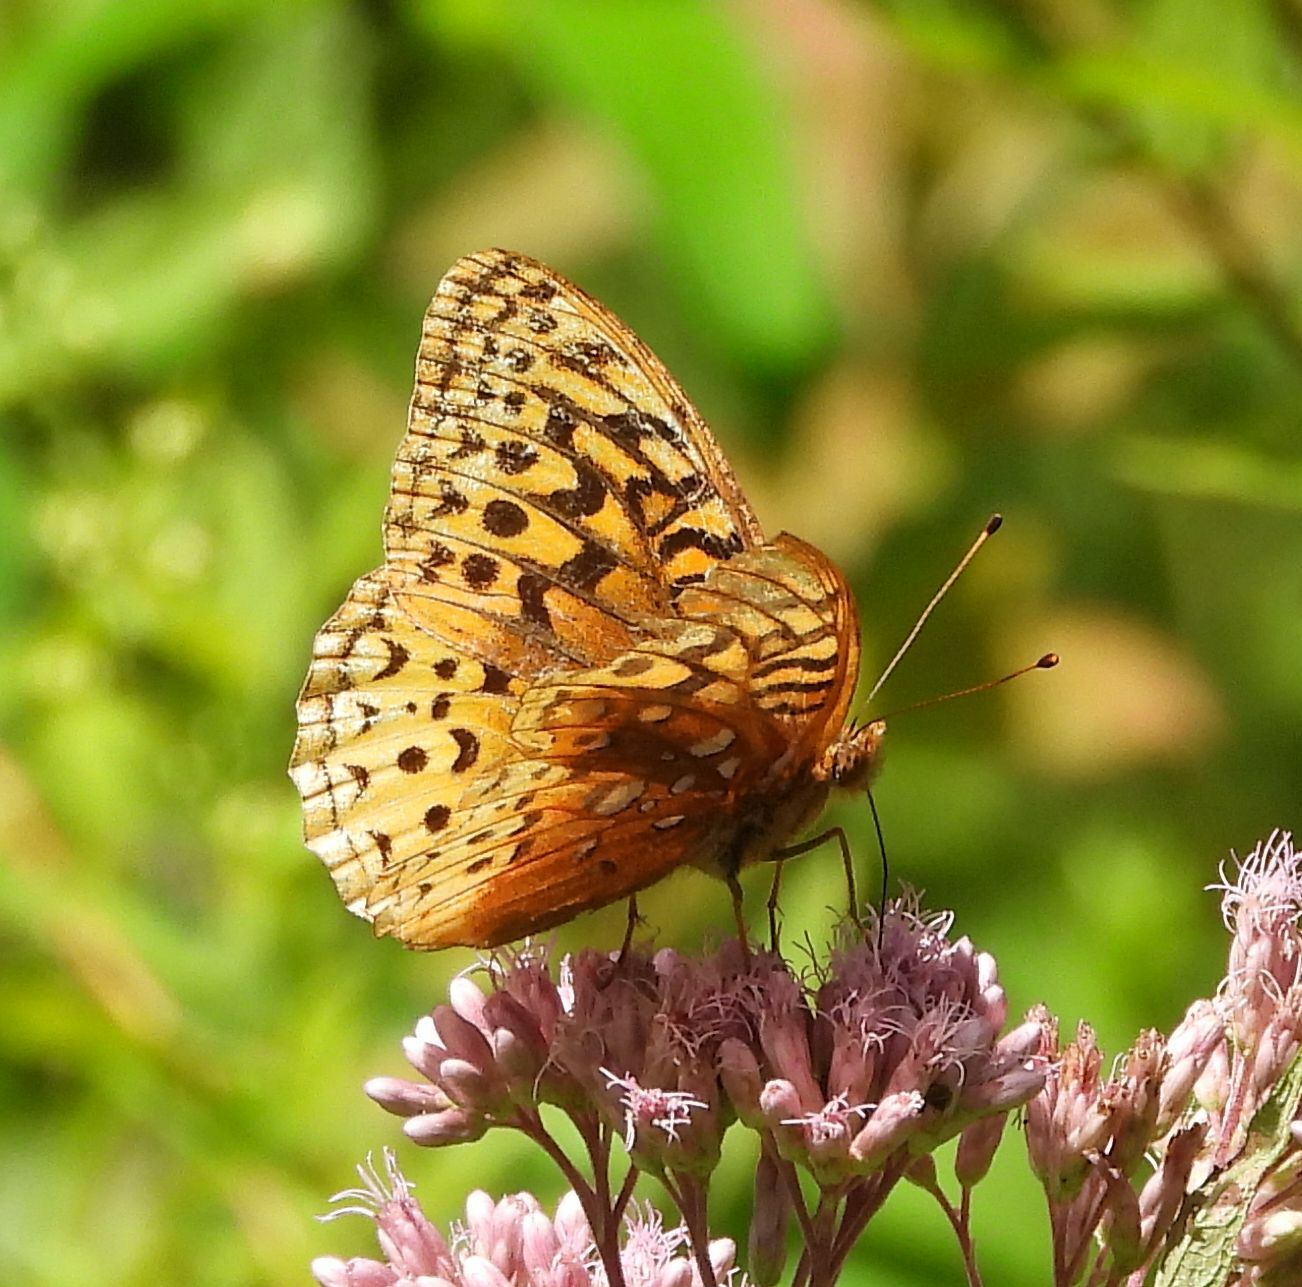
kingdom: Animalia
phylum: Arthropoda
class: Insecta
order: Lepidoptera
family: Nymphalidae
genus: Speyeria
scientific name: Speyeria cybele
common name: Great spangled fritillary
